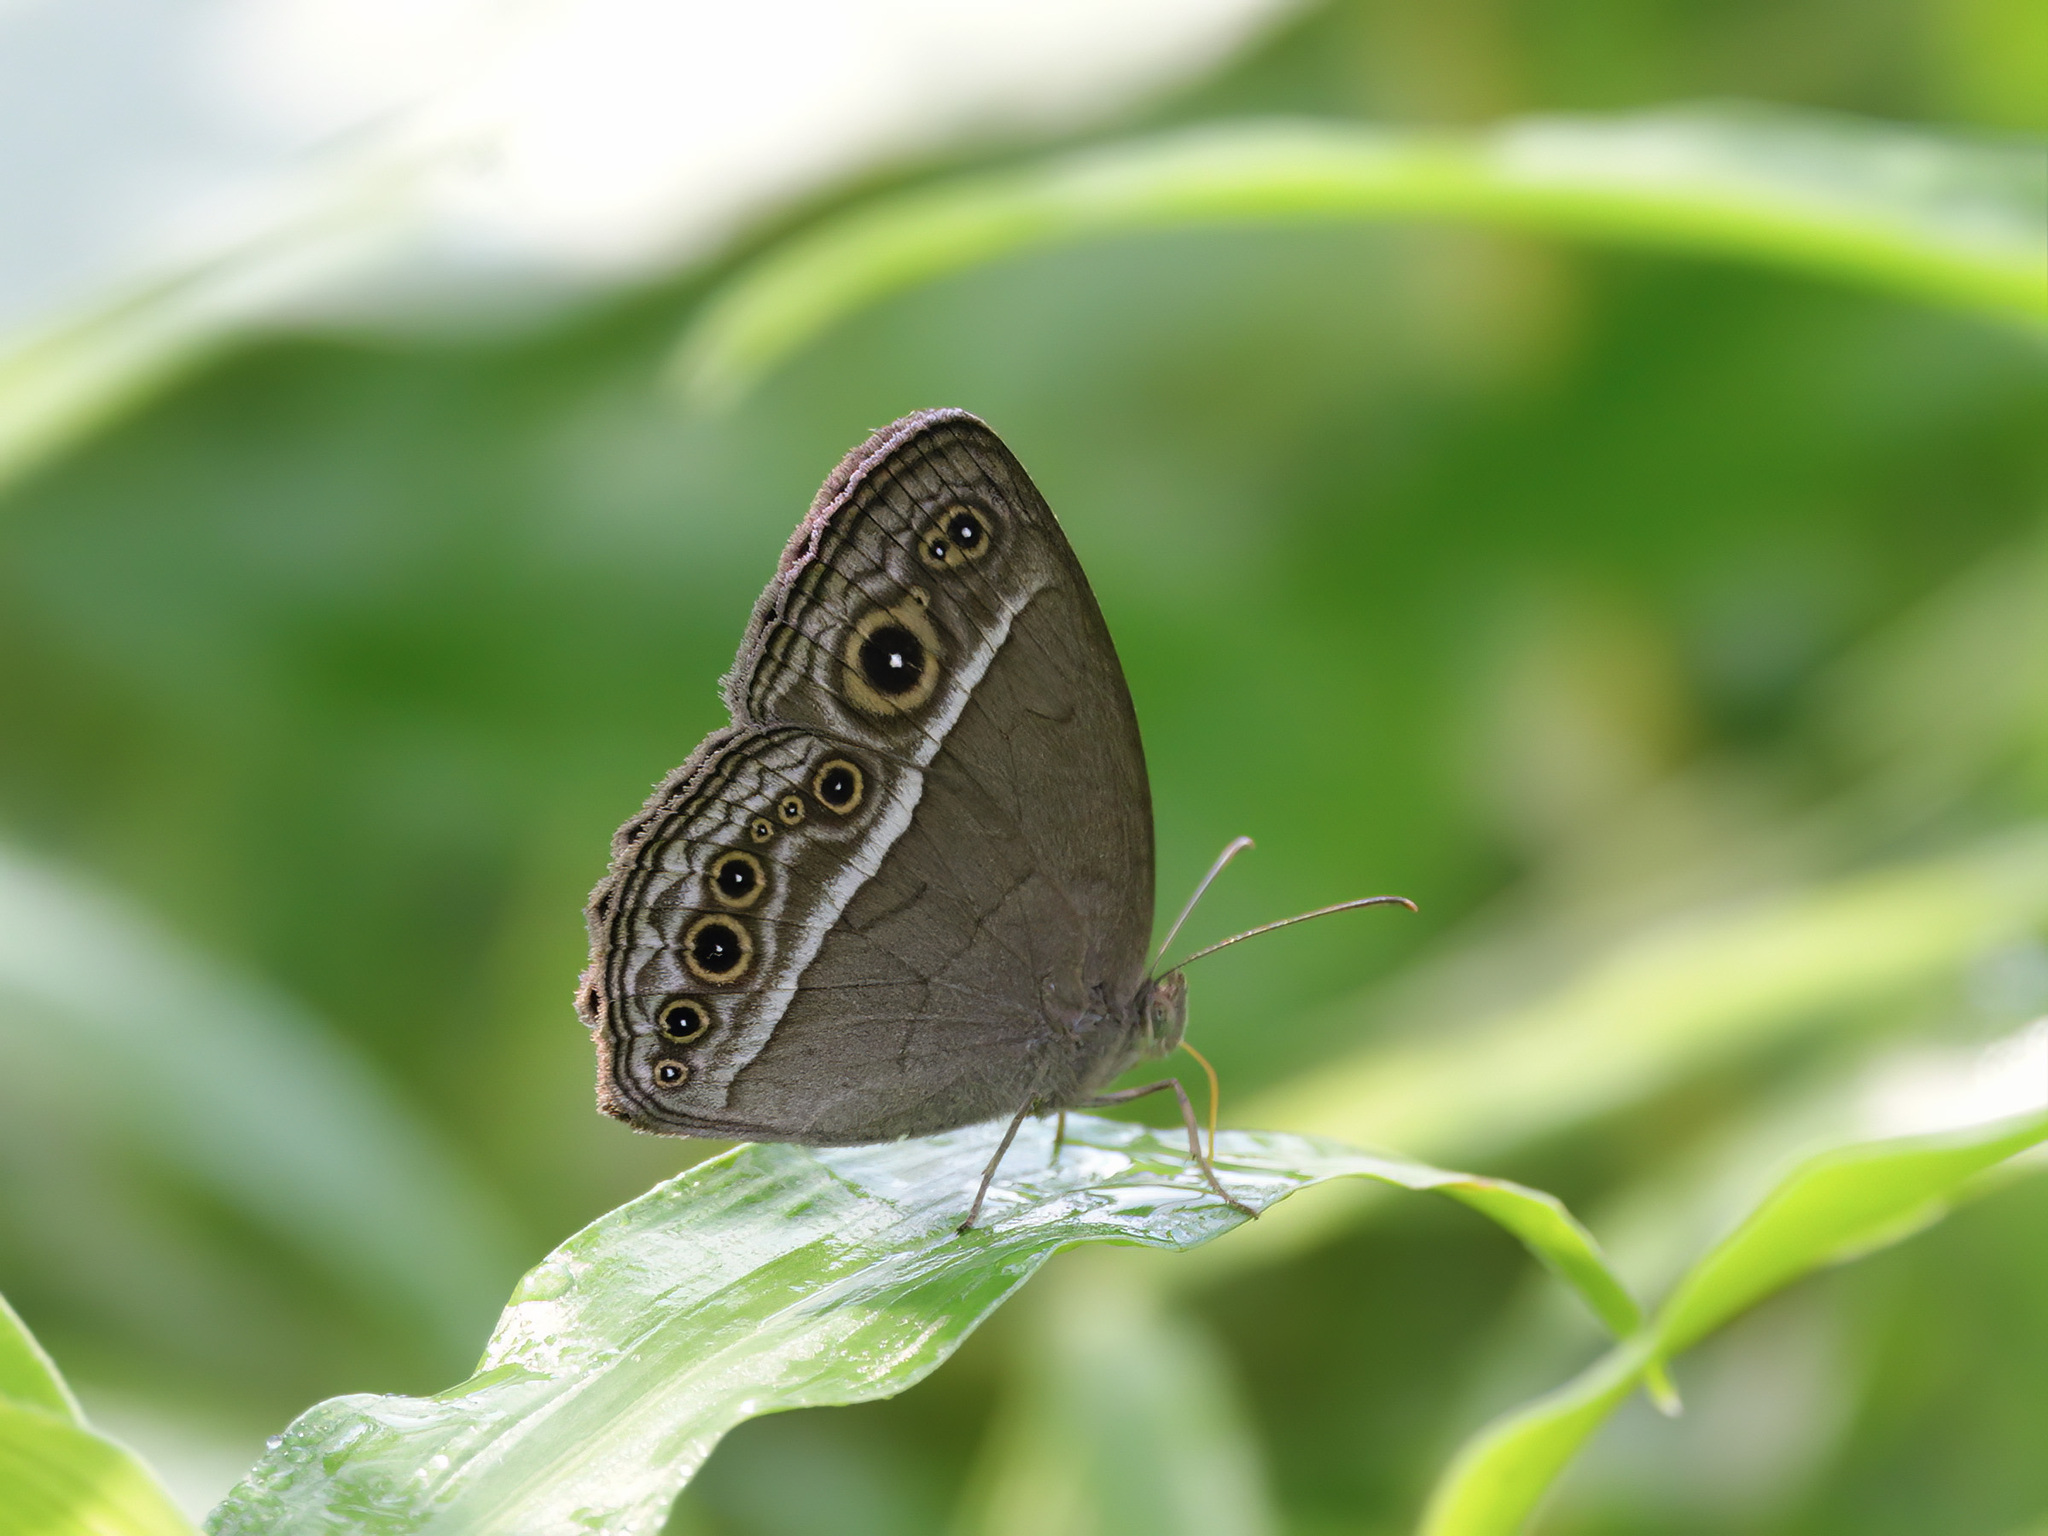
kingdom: Animalia
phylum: Arthropoda
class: Insecta
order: Lepidoptera
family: Nymphalidae
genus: Mycalesis
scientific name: Mycalesis visala
